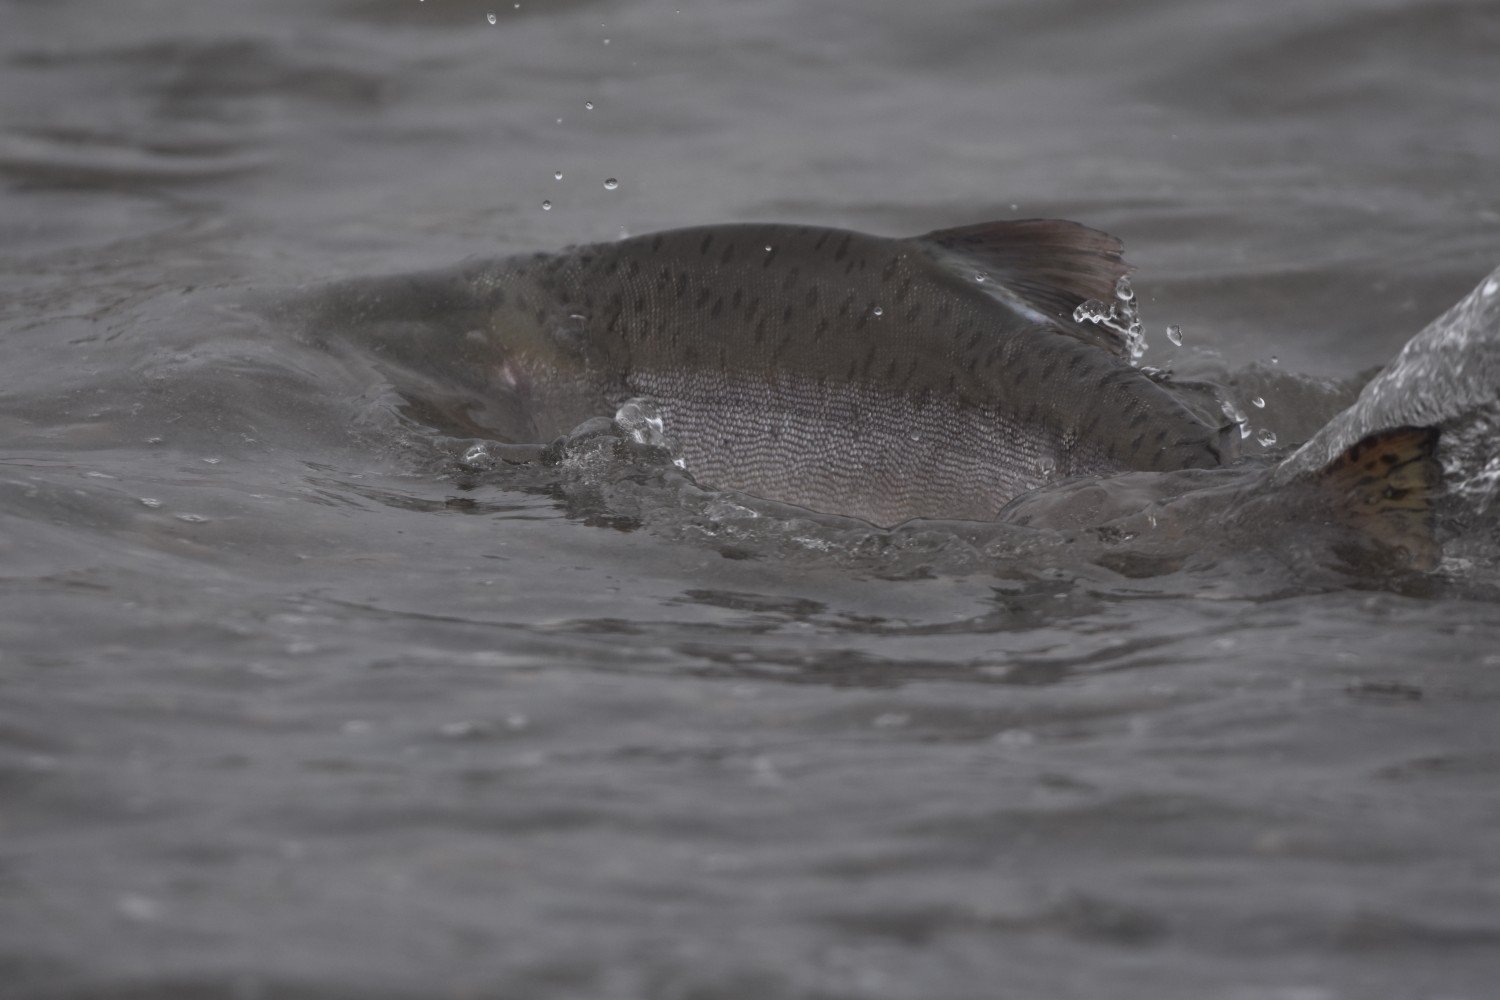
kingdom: Animalia
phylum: Chordata
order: Salmoniformes
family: Salmonidae
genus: Oncorhynchus
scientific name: Oncorhynchus gorbuscha
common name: Humpback salmon
